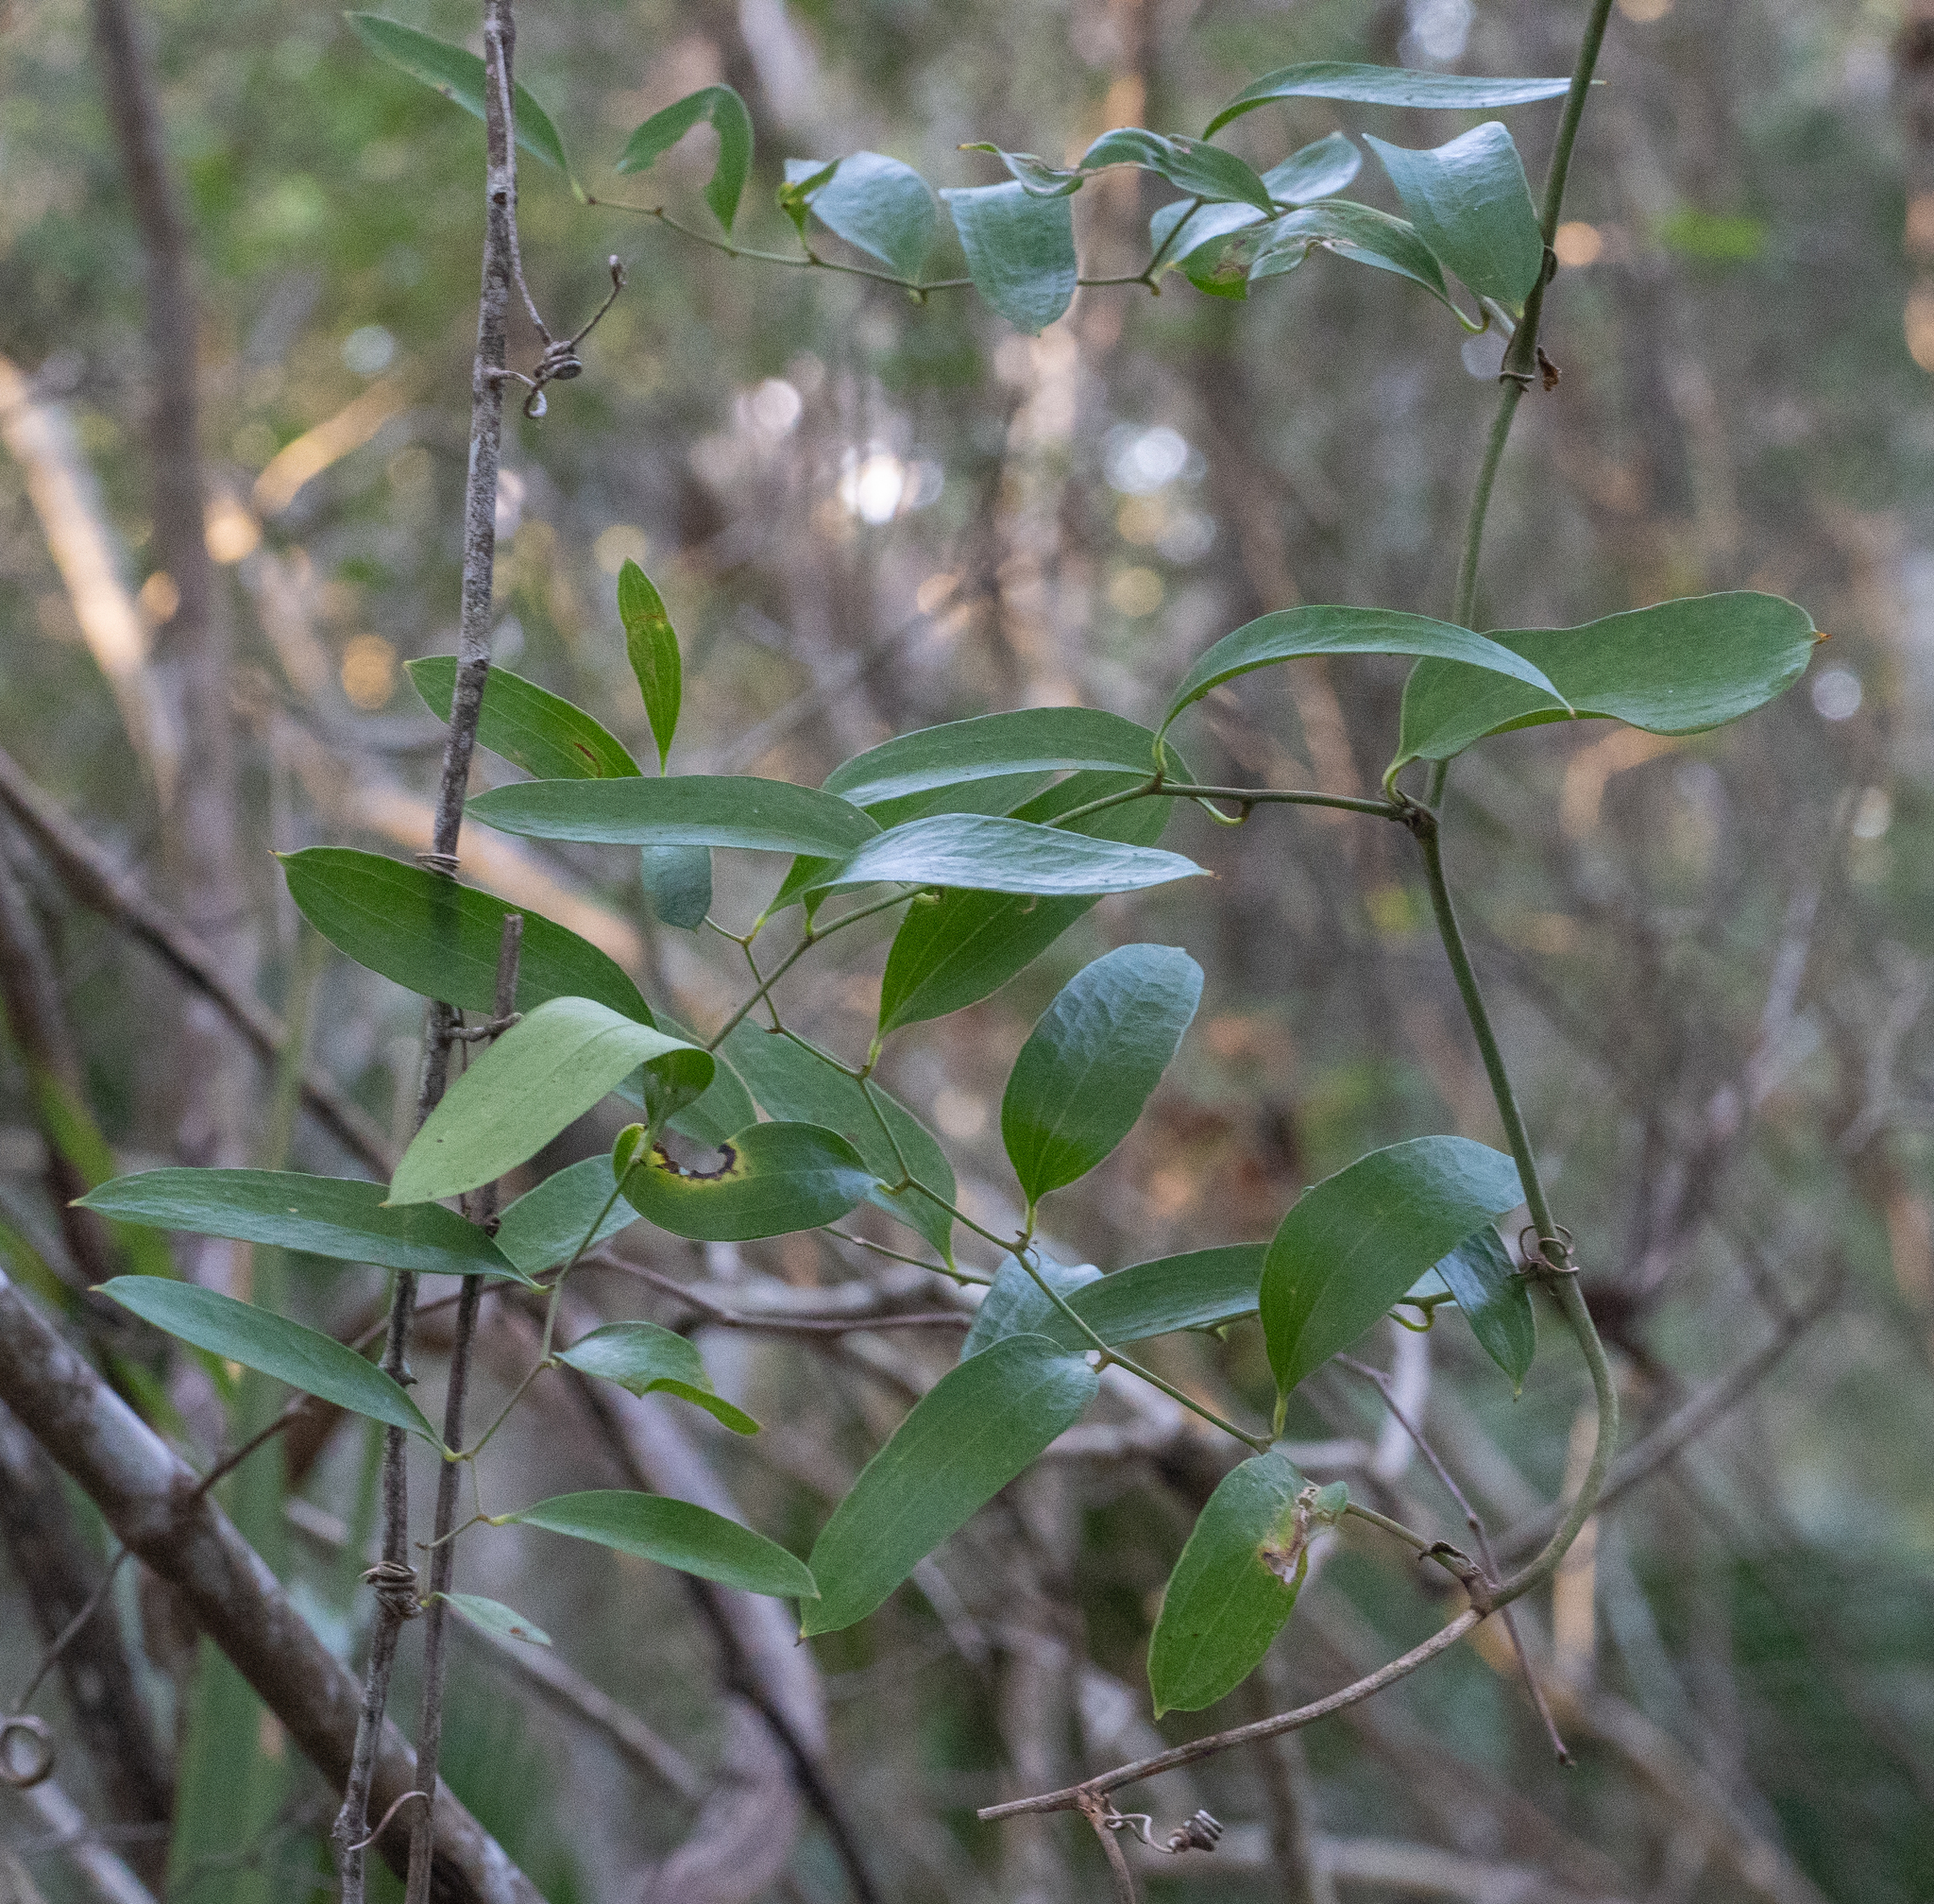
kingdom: Plantae
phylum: Tracheophyta
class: Liliopsida
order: Liliales
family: Smilacaceae
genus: Smilax
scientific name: Smilax auriculata
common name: Wild bamboo
